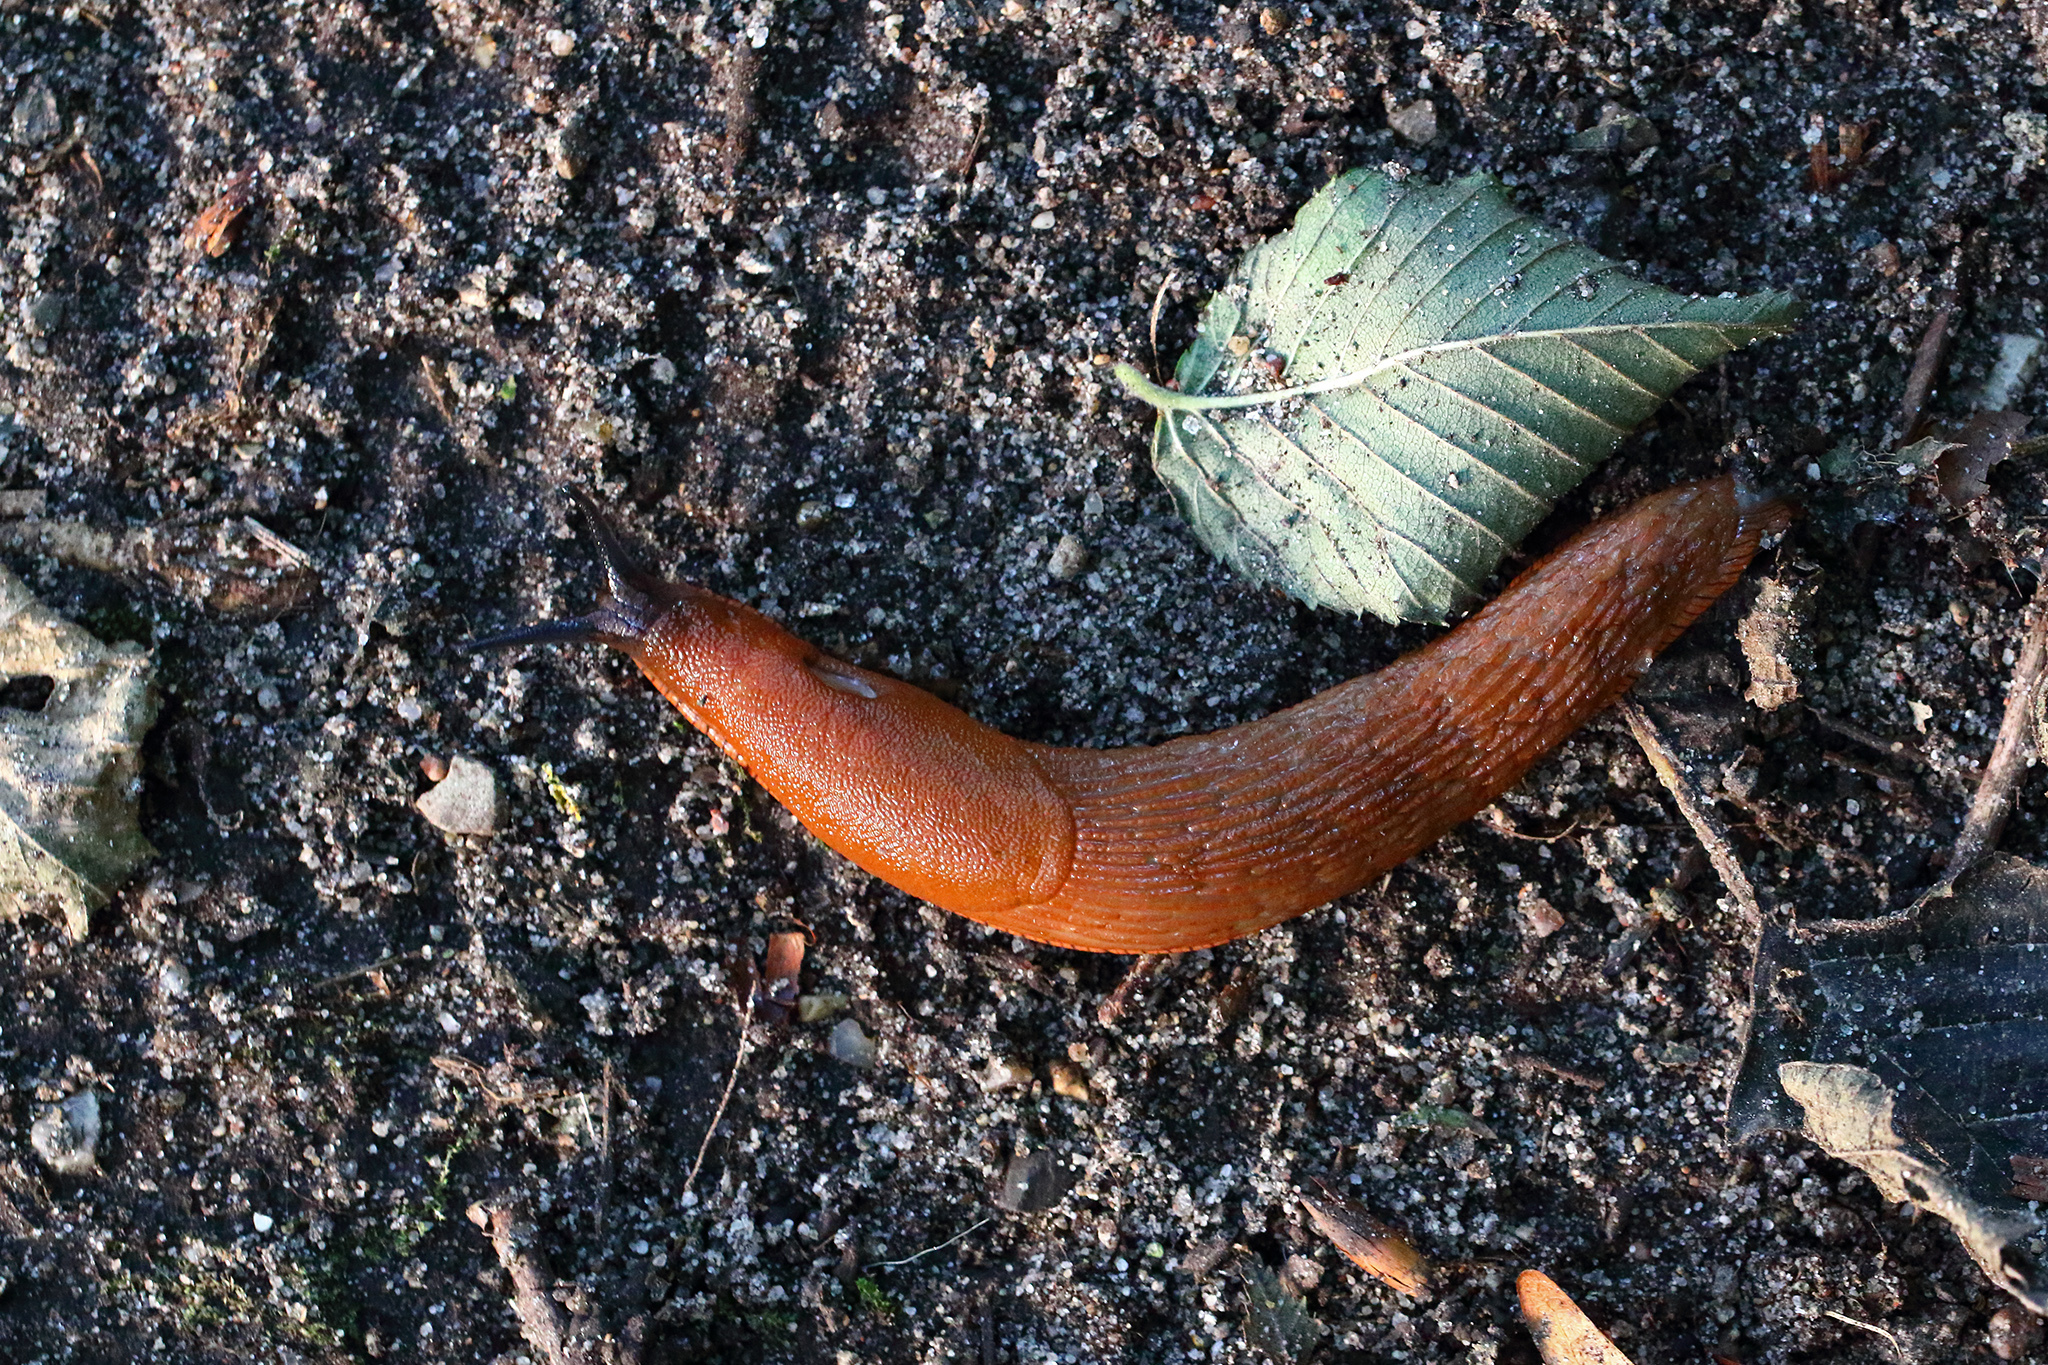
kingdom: Animalia
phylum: Mollusca
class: Gastropoda
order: Stylommatophora
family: Arionidae
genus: Arion
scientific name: Arion rufus
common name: Chocolate arion
